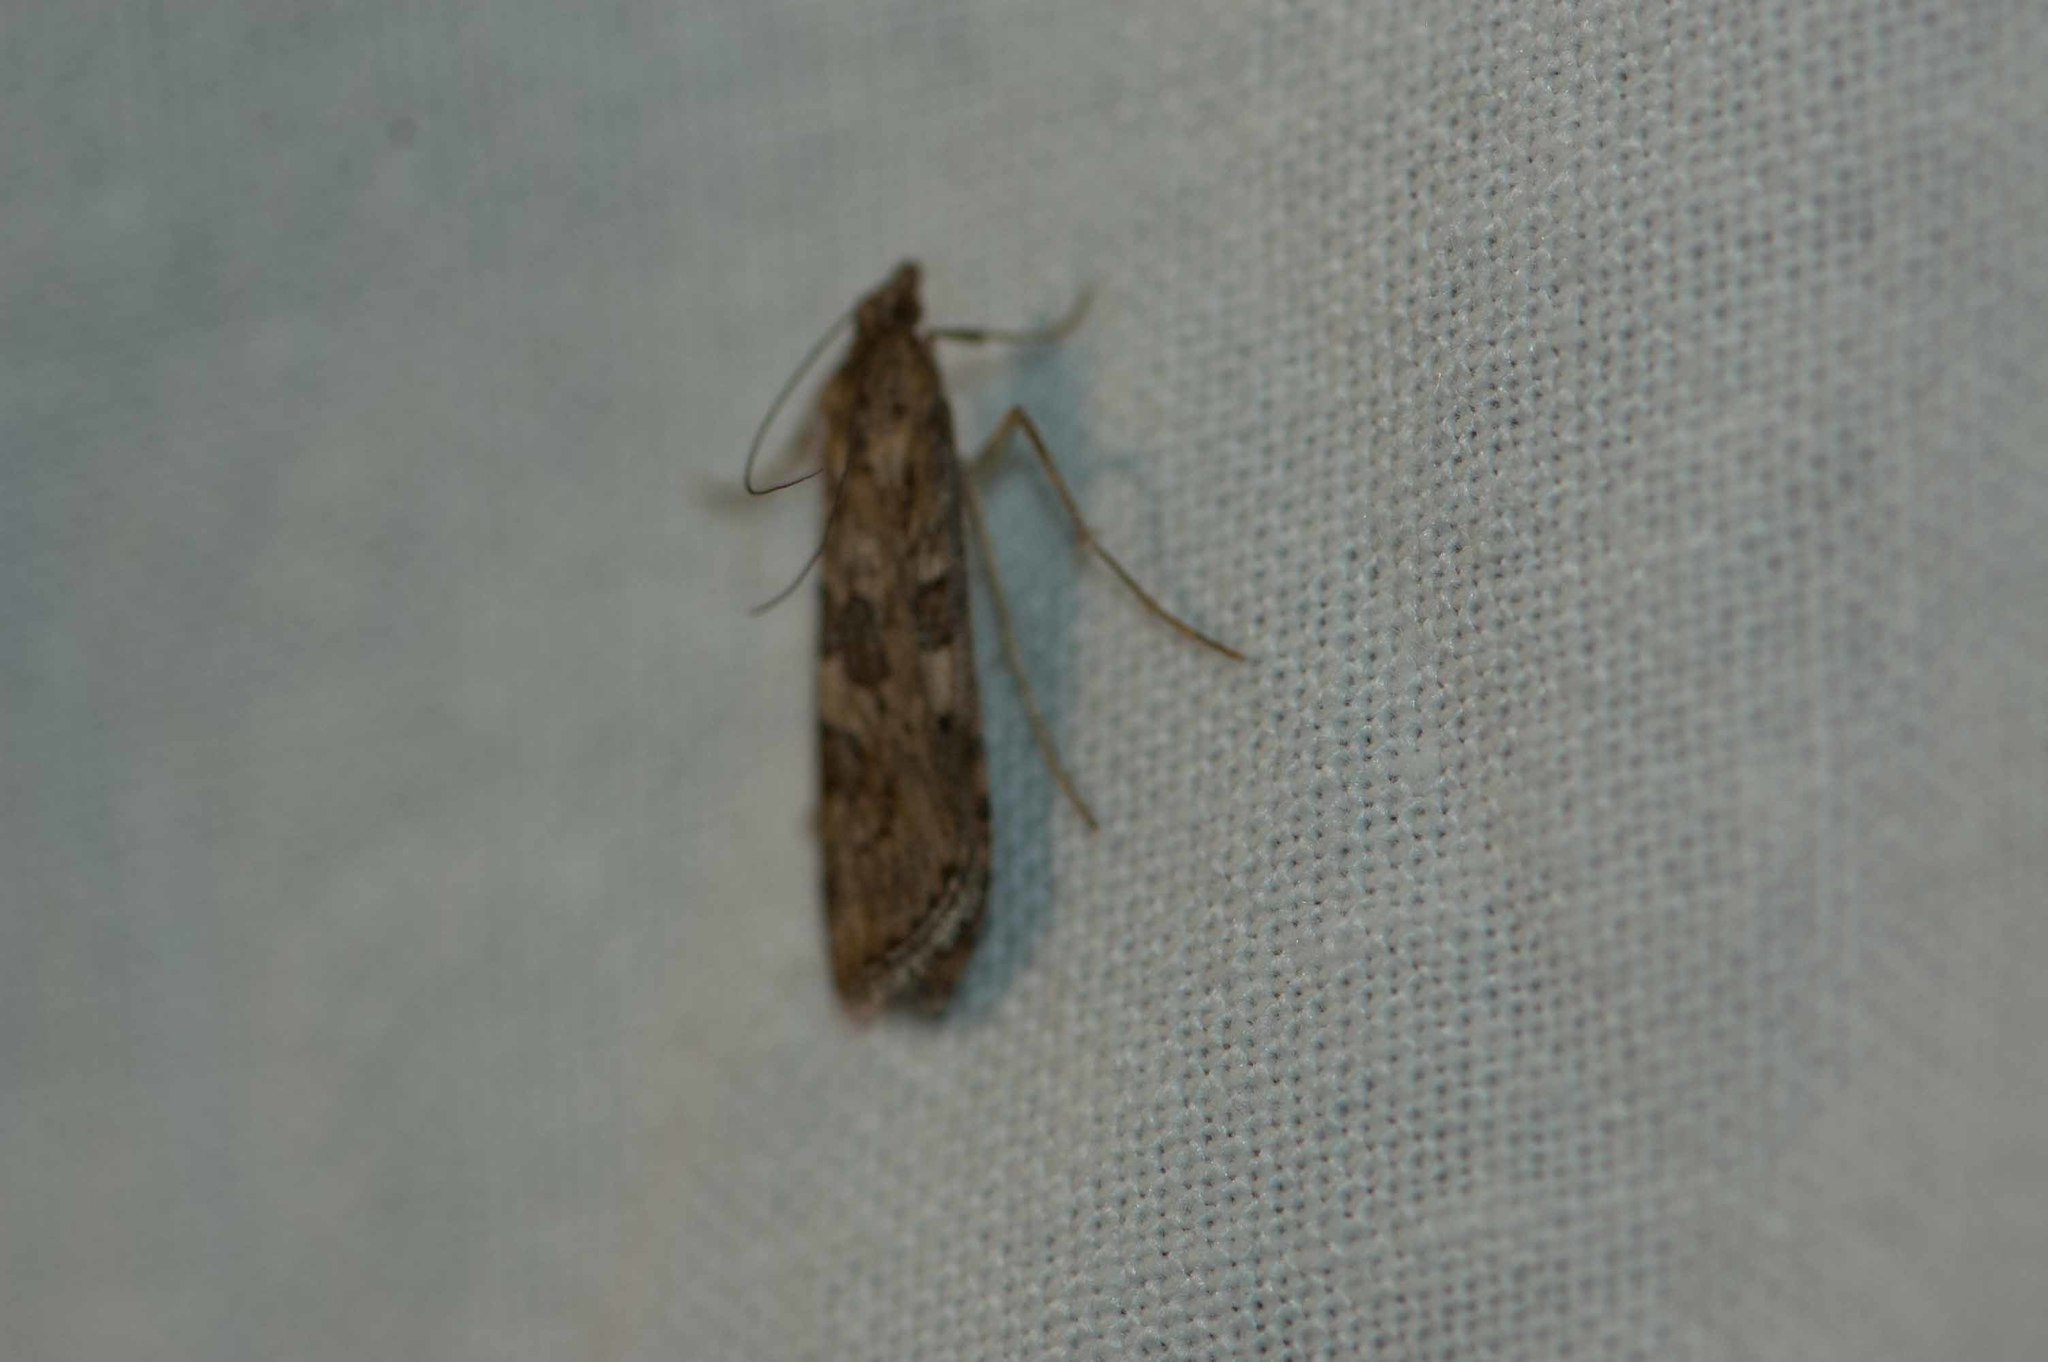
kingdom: Animalia
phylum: Arthropoda
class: Insecta
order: Lepidoptera
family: Crambidae
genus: Nomophila
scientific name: Nomophila noctuella
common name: Rush veneer
